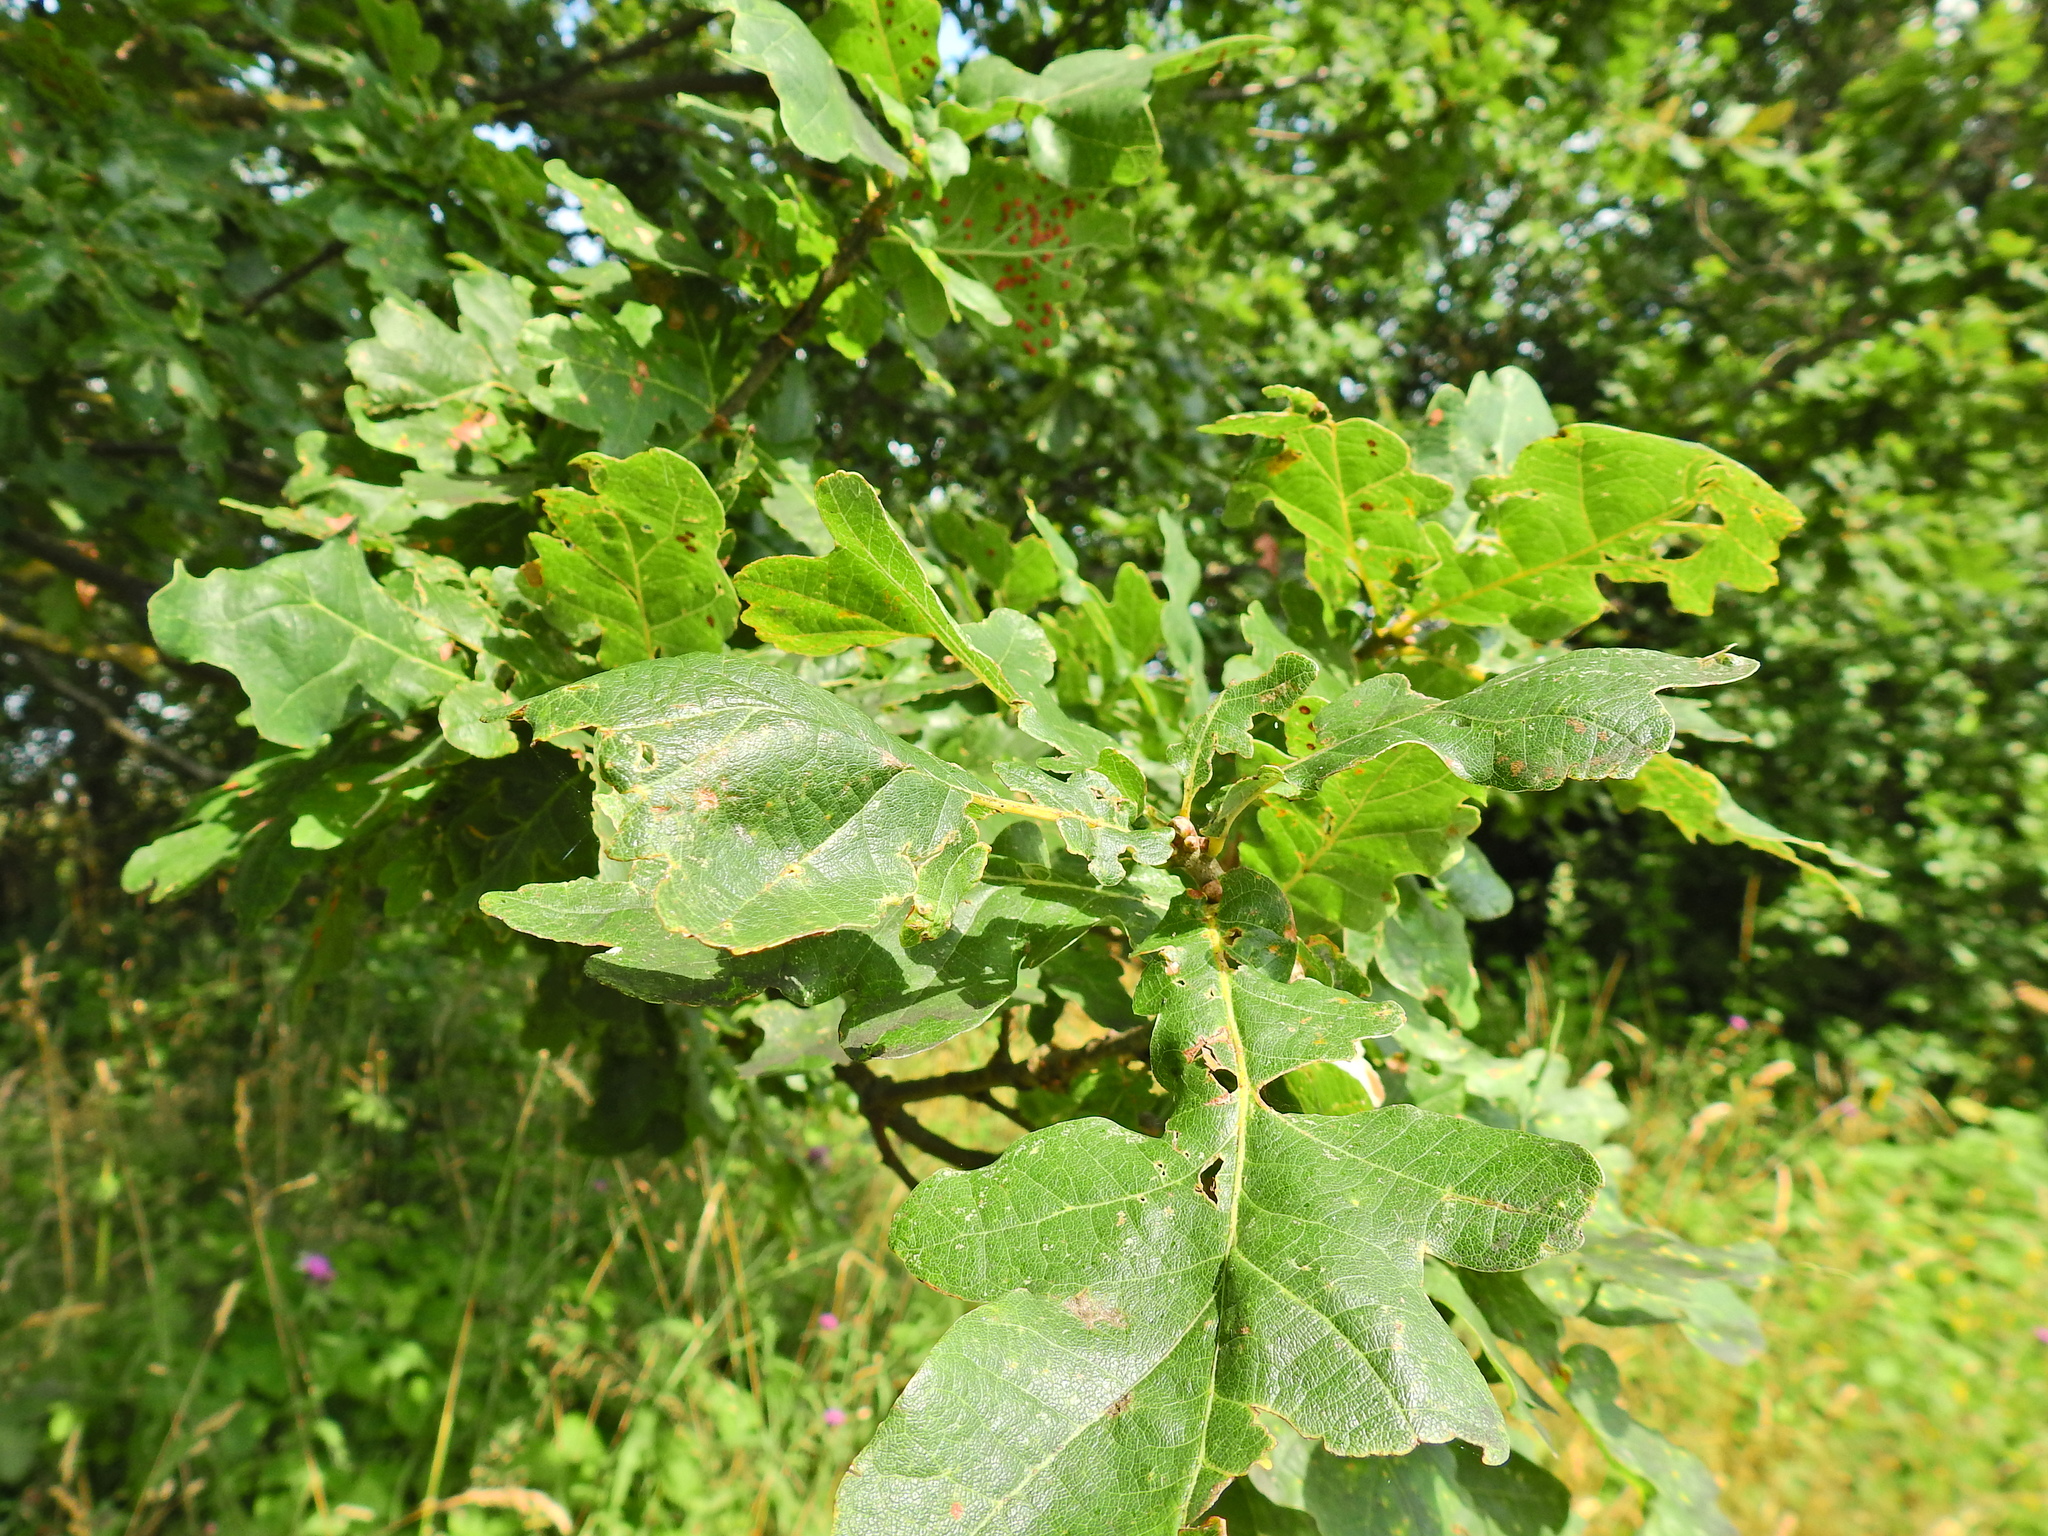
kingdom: Plantae
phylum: Tracheophyta
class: Magnoliopsida
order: Fagales
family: Fagaceae
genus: Quercus
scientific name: Quercus robur
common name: Pedunculate oak
